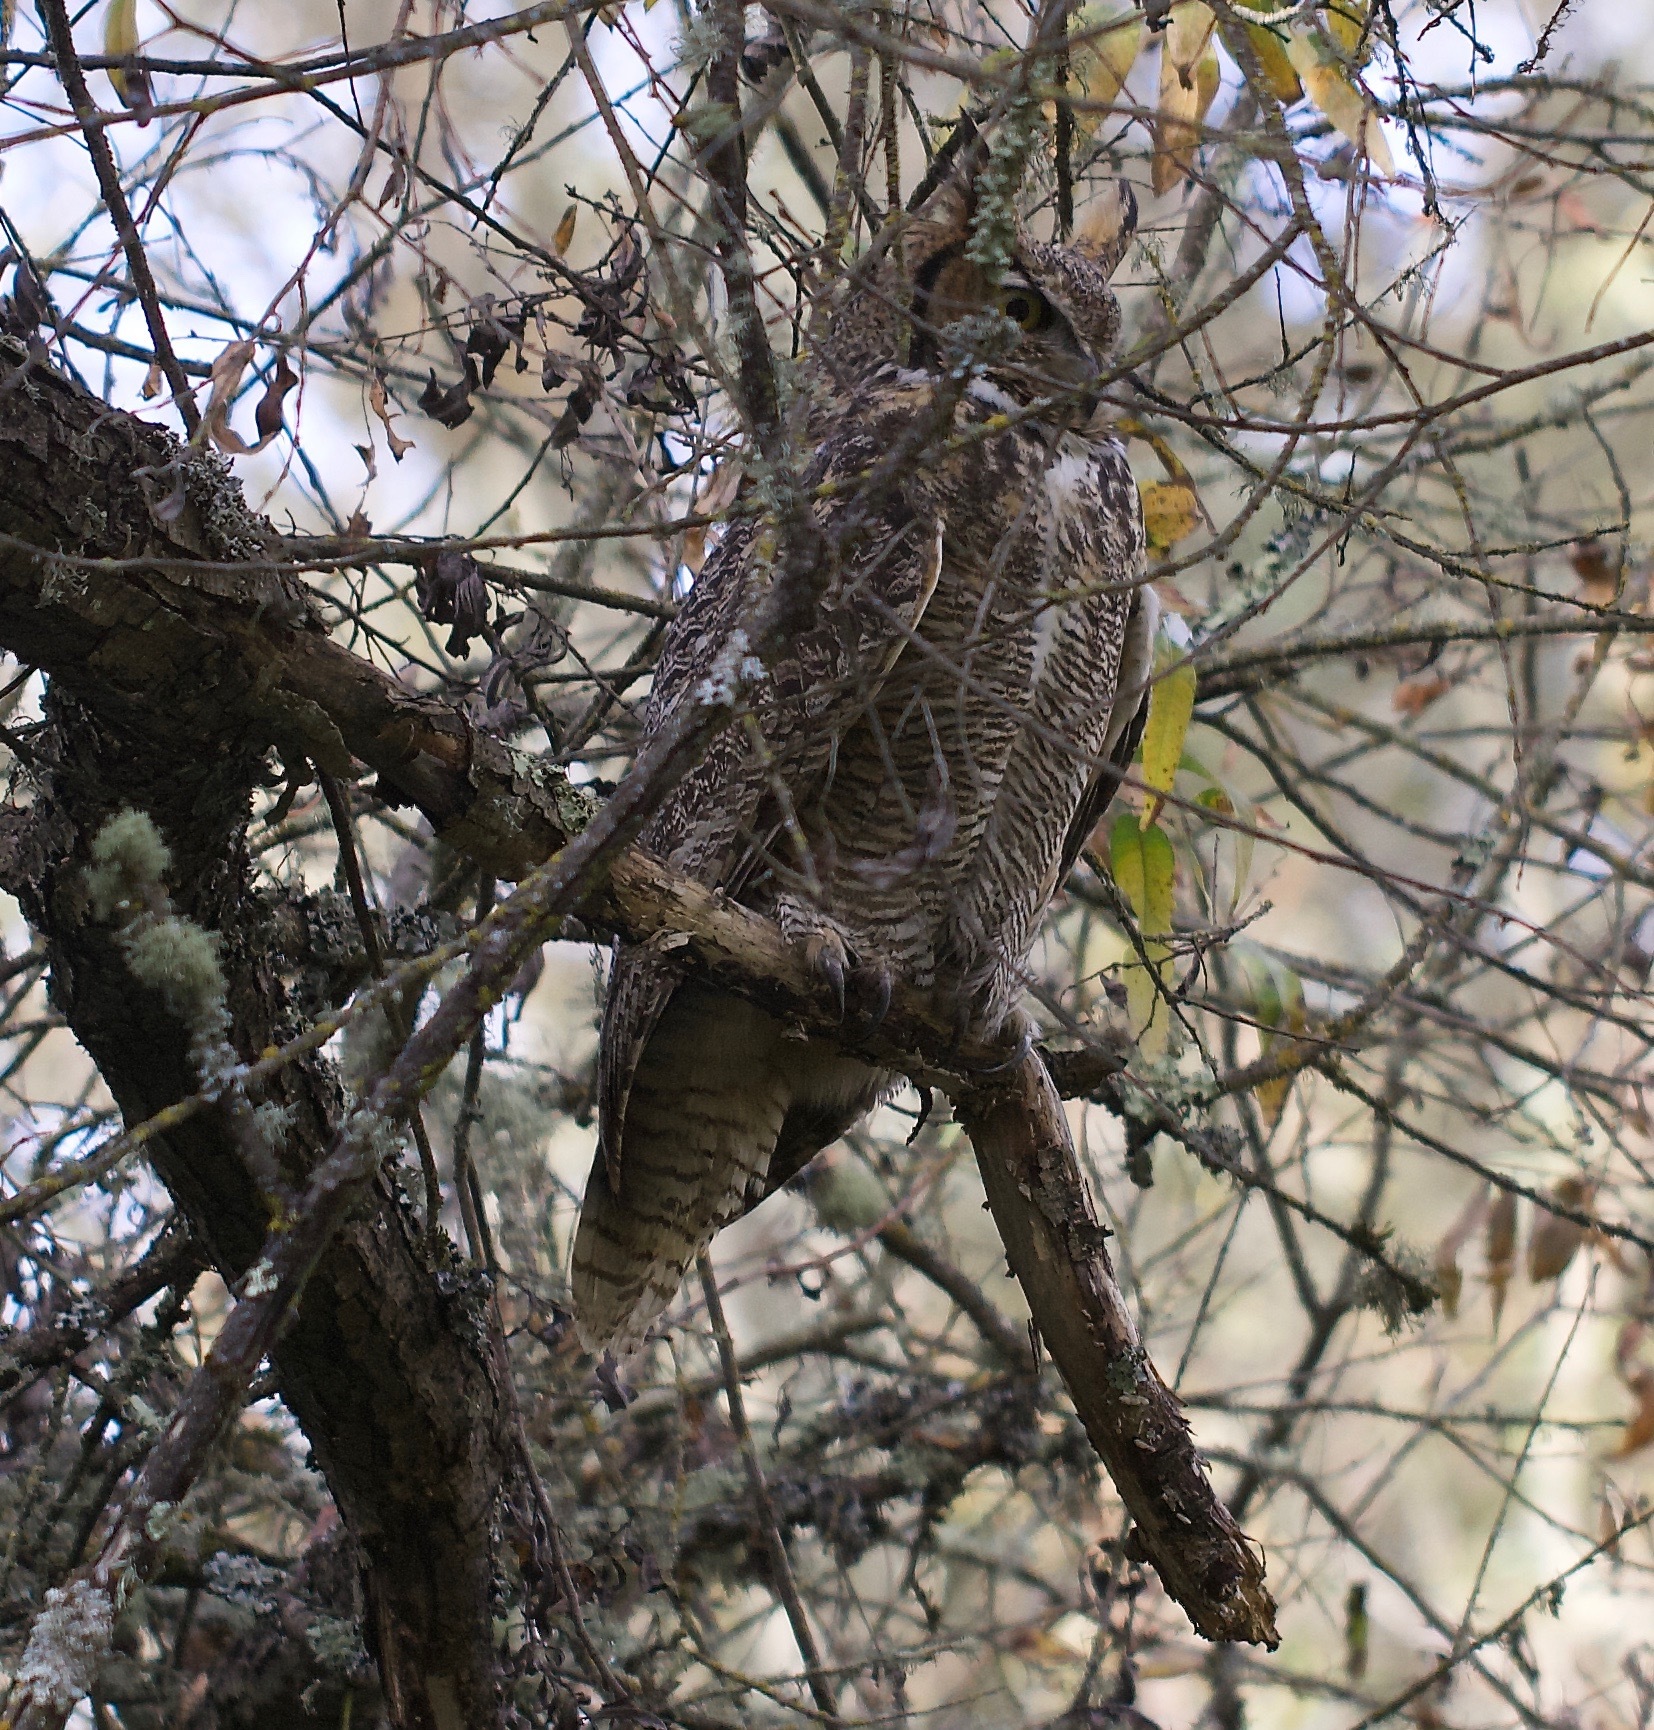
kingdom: Animalia
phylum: Chordata
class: Aves
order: Strigiformes
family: Strigidae
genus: Bubo
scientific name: Bubo virginianus
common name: Great horned owl
